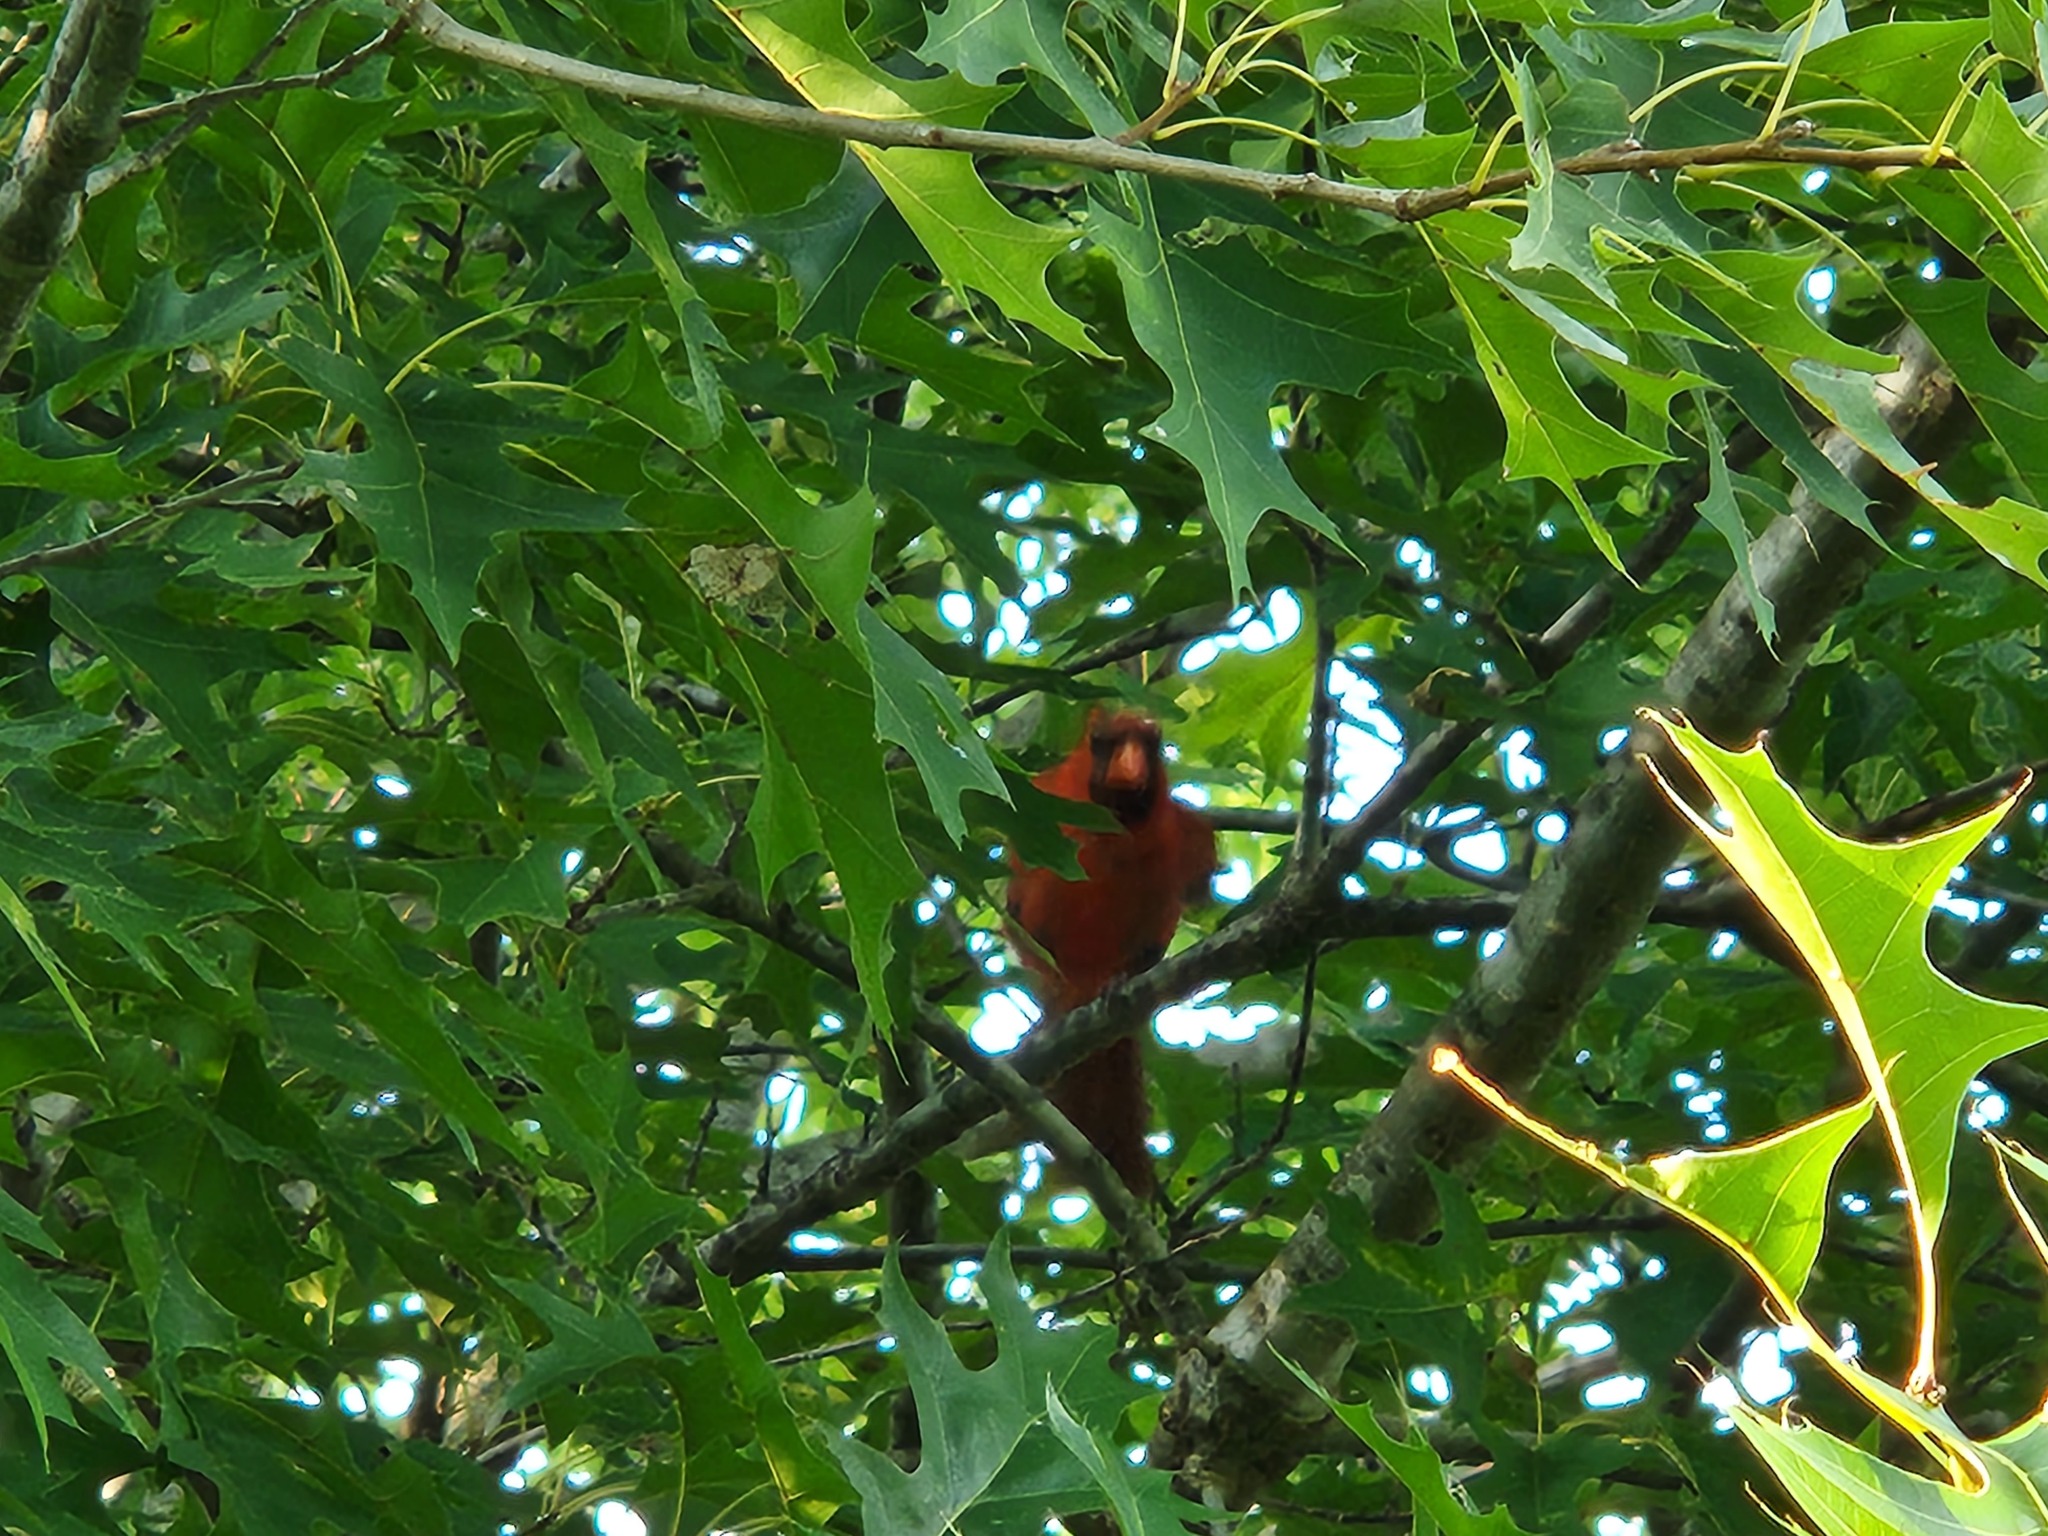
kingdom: Animalia
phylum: Chordata
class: Aves
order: Passeriformes
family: Cardinalidae
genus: Cardinalis
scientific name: Cardinalis cardinalis
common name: Northern cardinal
